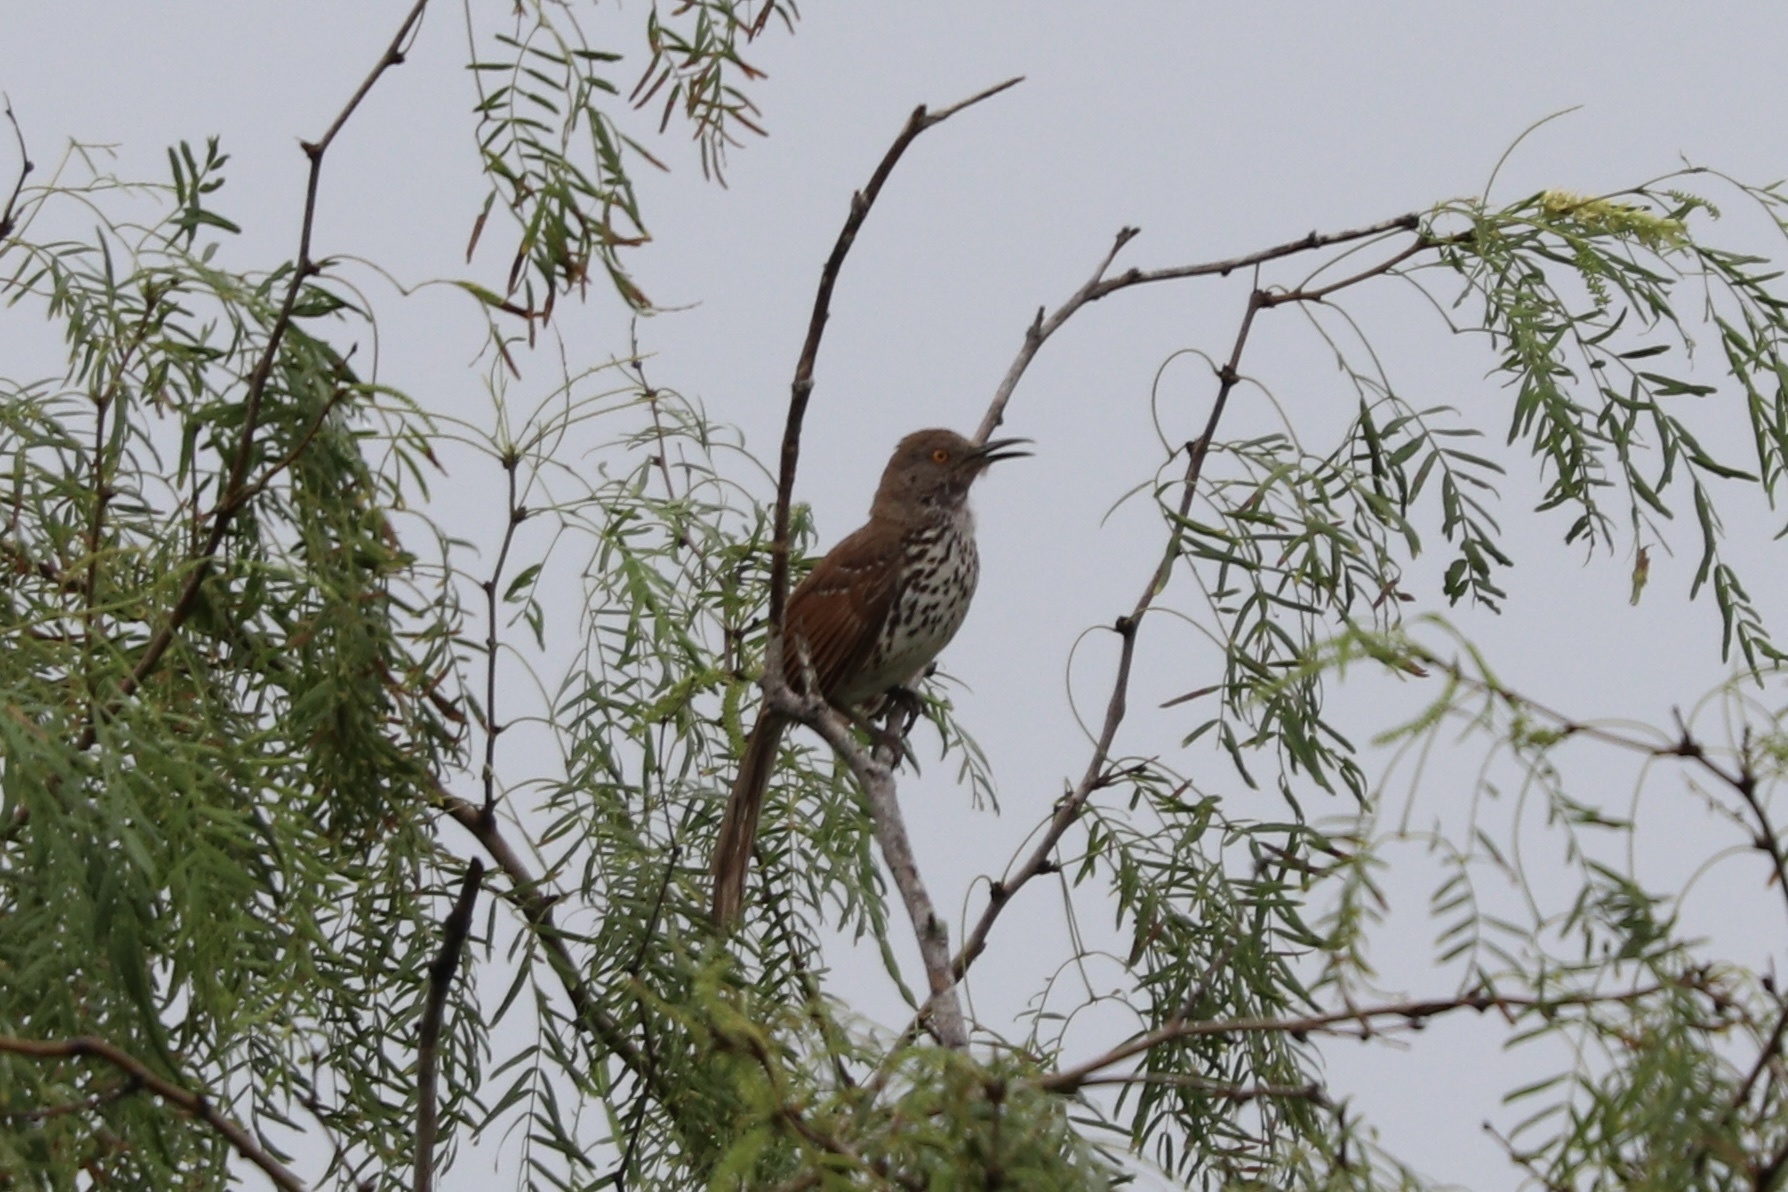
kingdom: Animalia
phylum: Chordata
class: Aves
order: Passeriformes
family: Mimidae
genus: Toxostoma
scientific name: Toxostoma longirostre
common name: Long-billed thrasher
